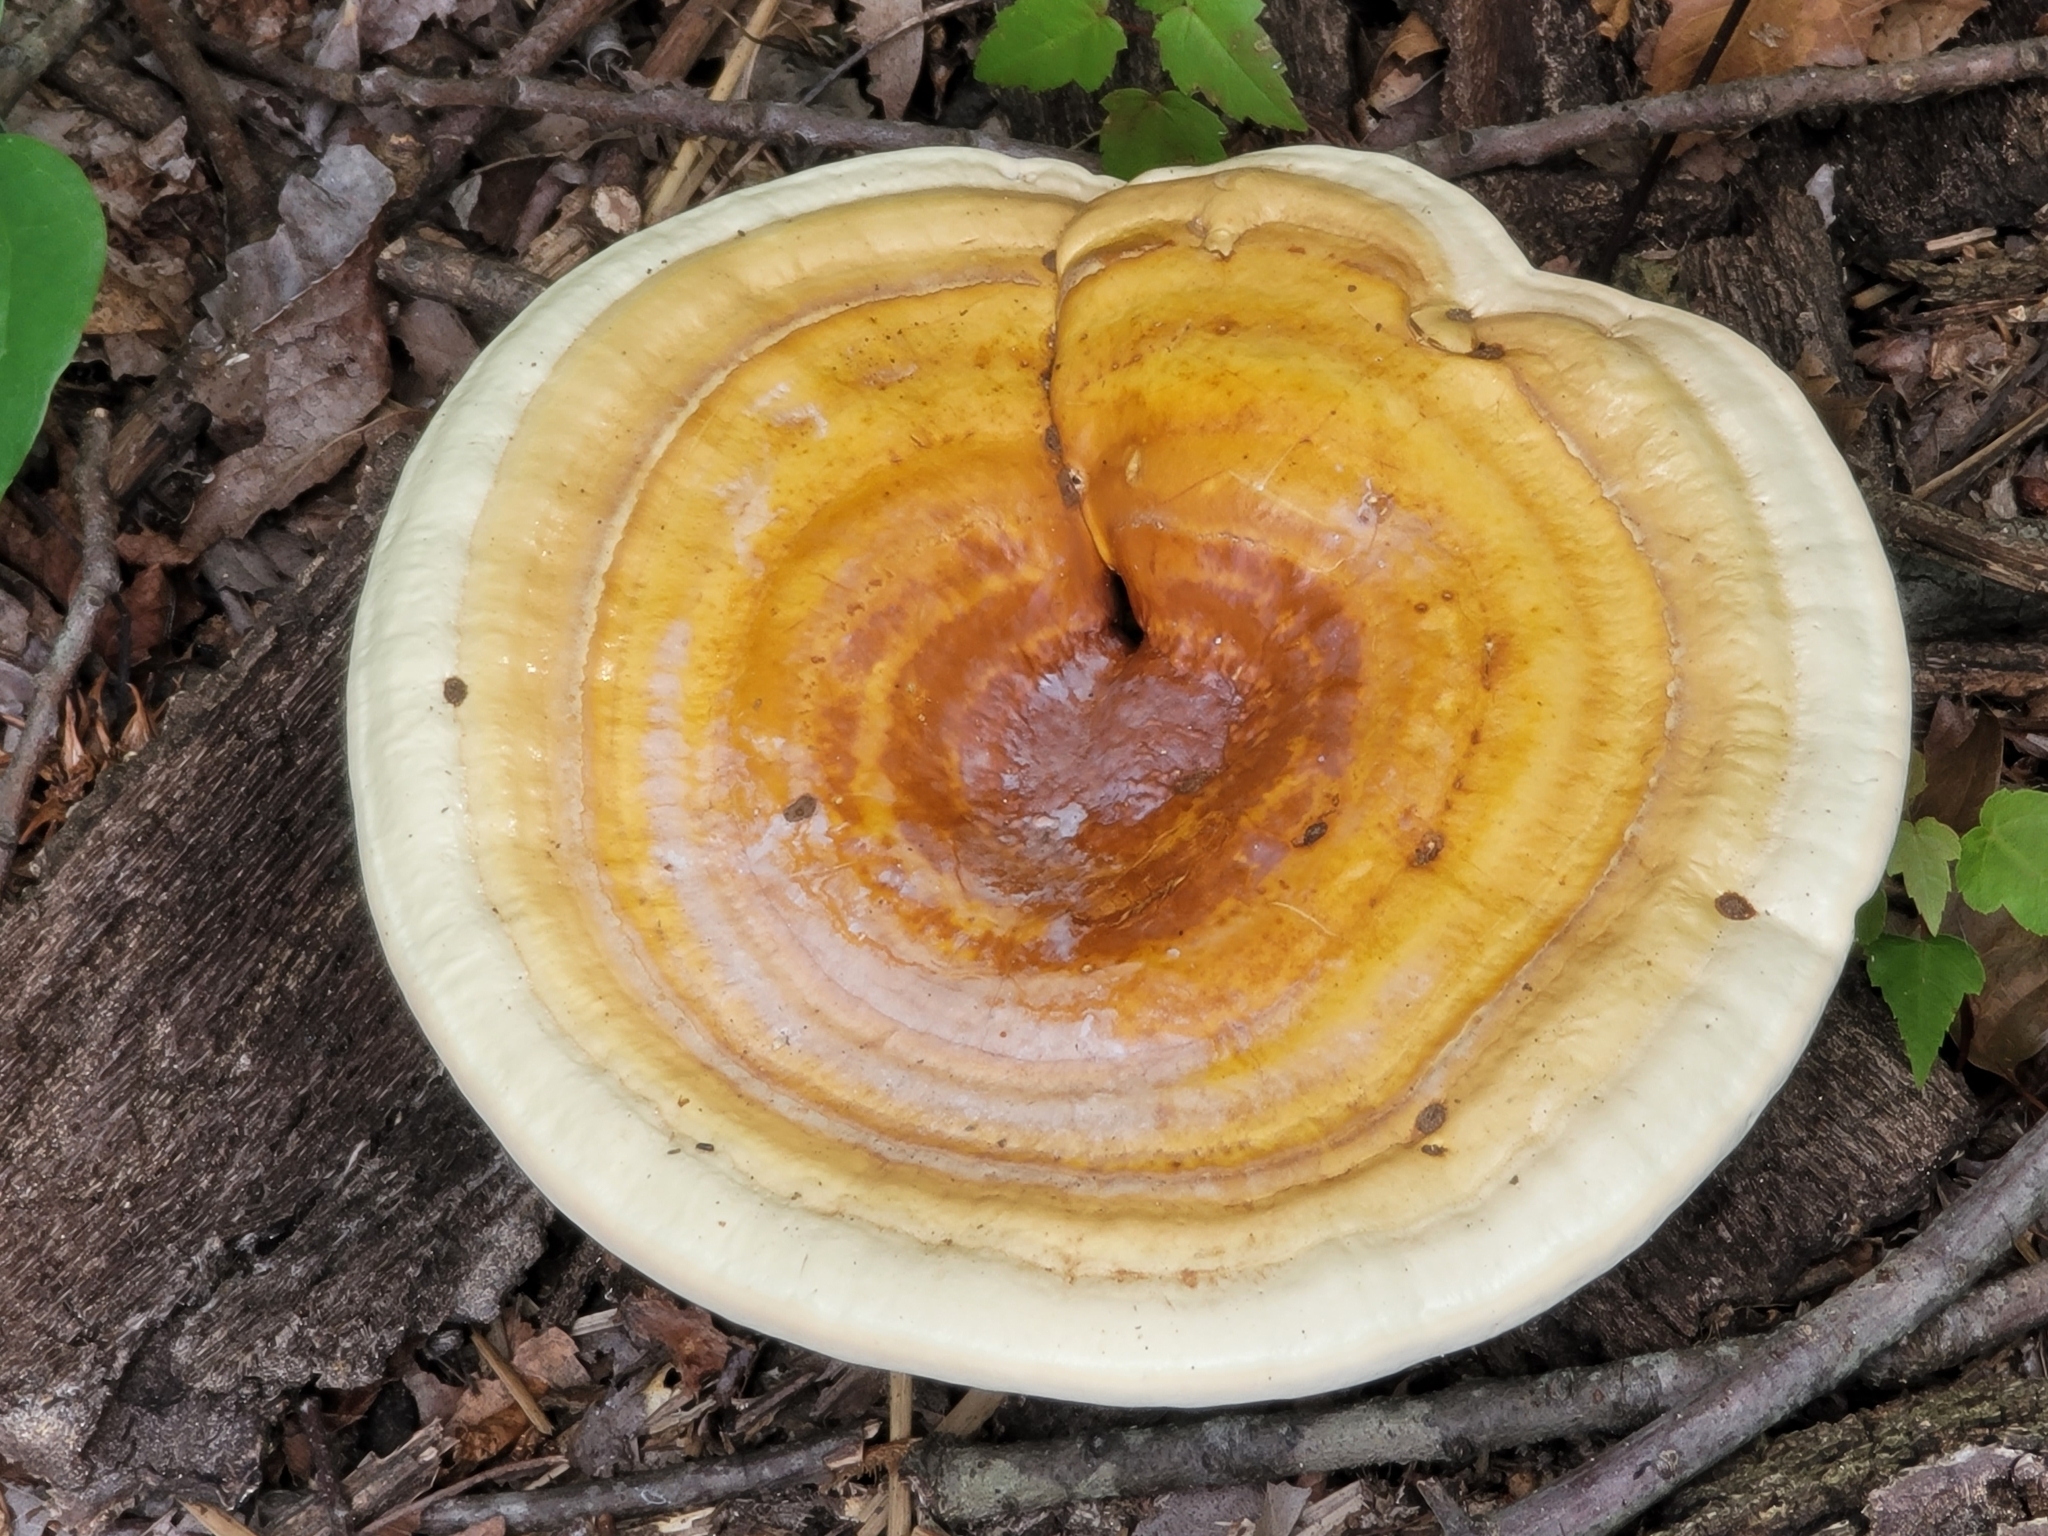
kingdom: Fungi
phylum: Basidiomycota
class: Agaricomycetes
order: Polyporales
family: Polyporaceae
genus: Ganoderma
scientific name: Ganoderma curtisii
